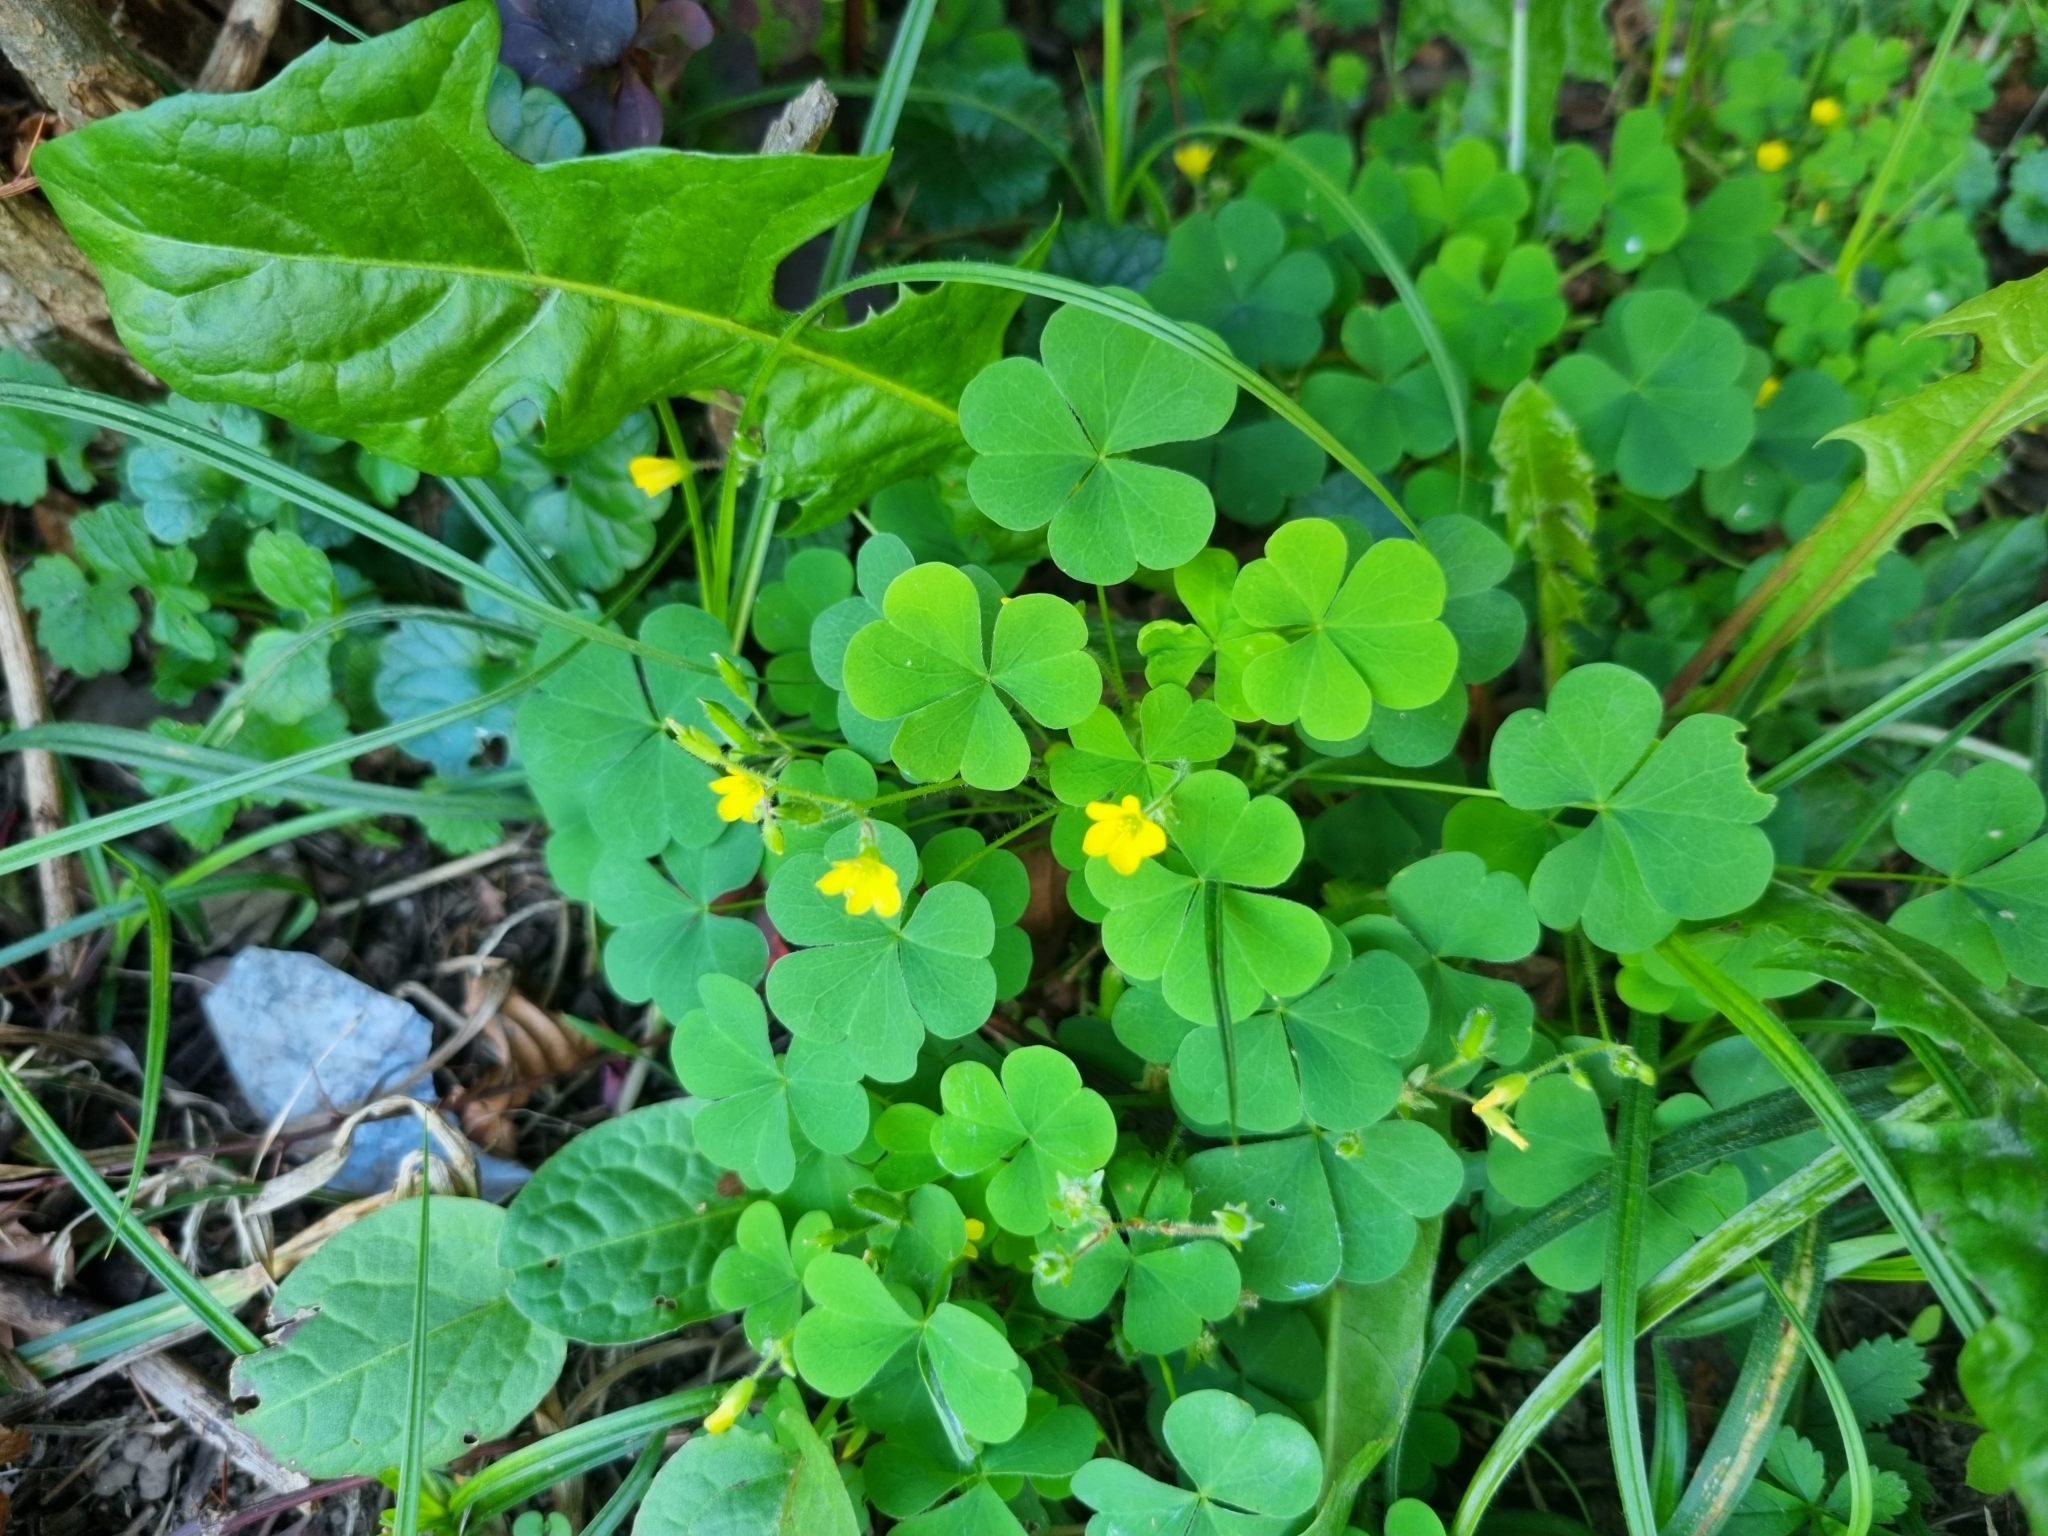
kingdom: Plantae
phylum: Tracheophyta
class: Magnoliopsida
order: Oxalidales
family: Oxalidaceae
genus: Oxalis
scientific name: Oxalis stricta
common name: Upright yellow-sorrel
